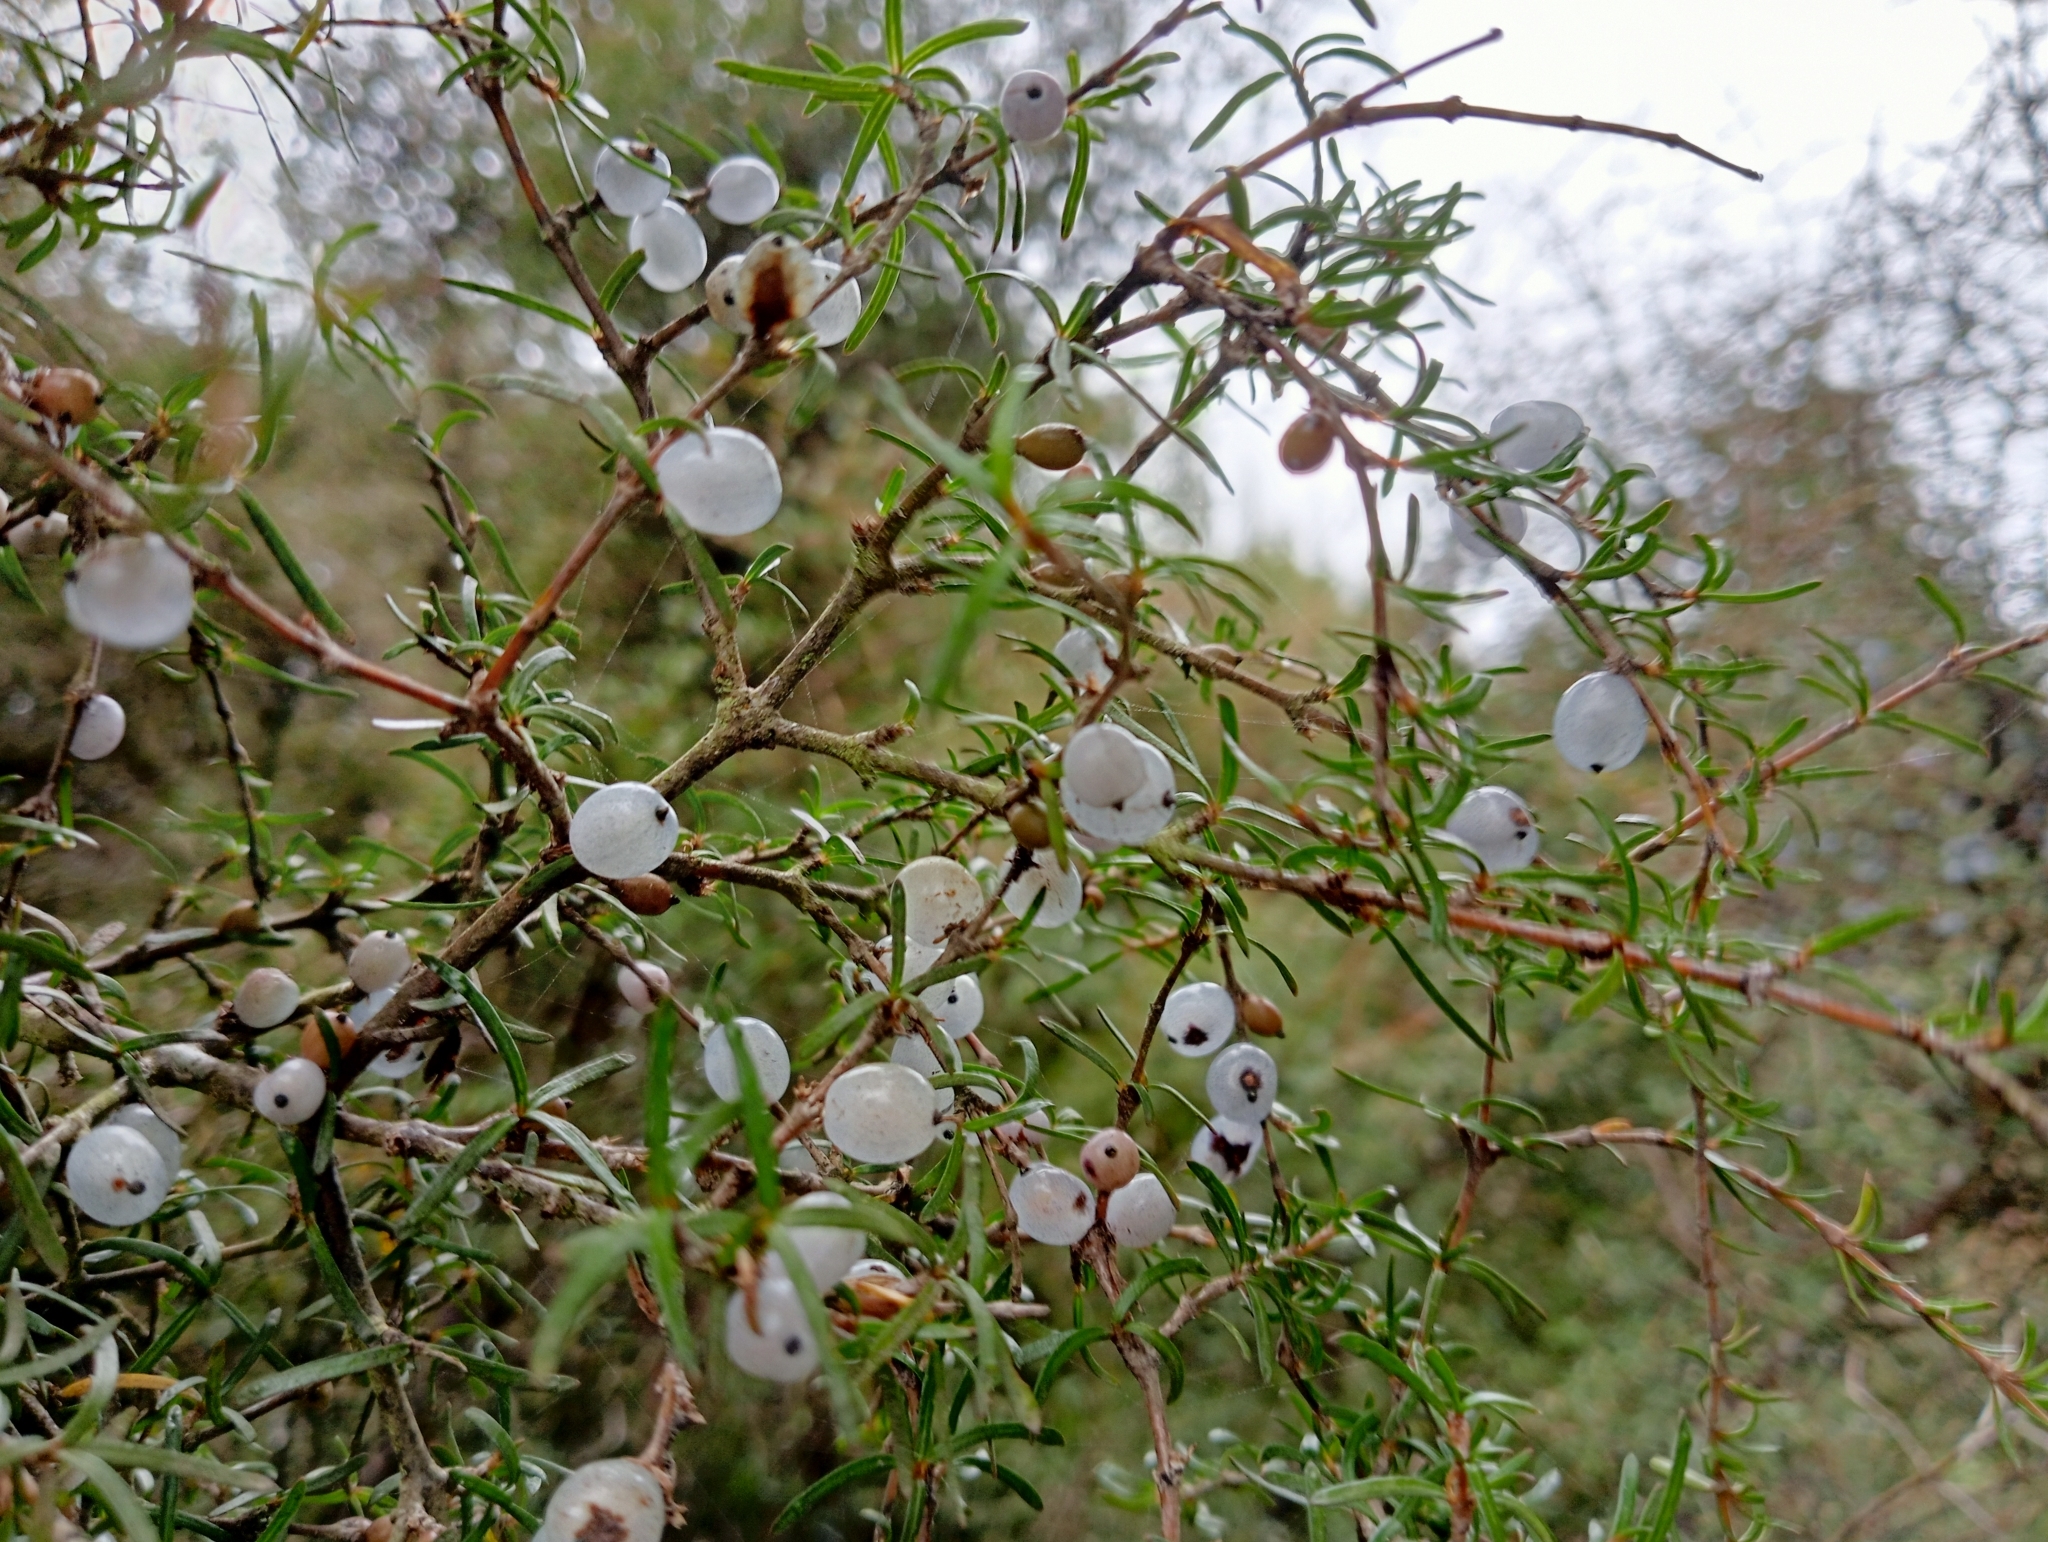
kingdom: Plantae
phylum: Tracheophyta
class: Magnoliopsida
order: Gentianales
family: Rubiaceae
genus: Coprosma
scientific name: Coprosma rugosa
